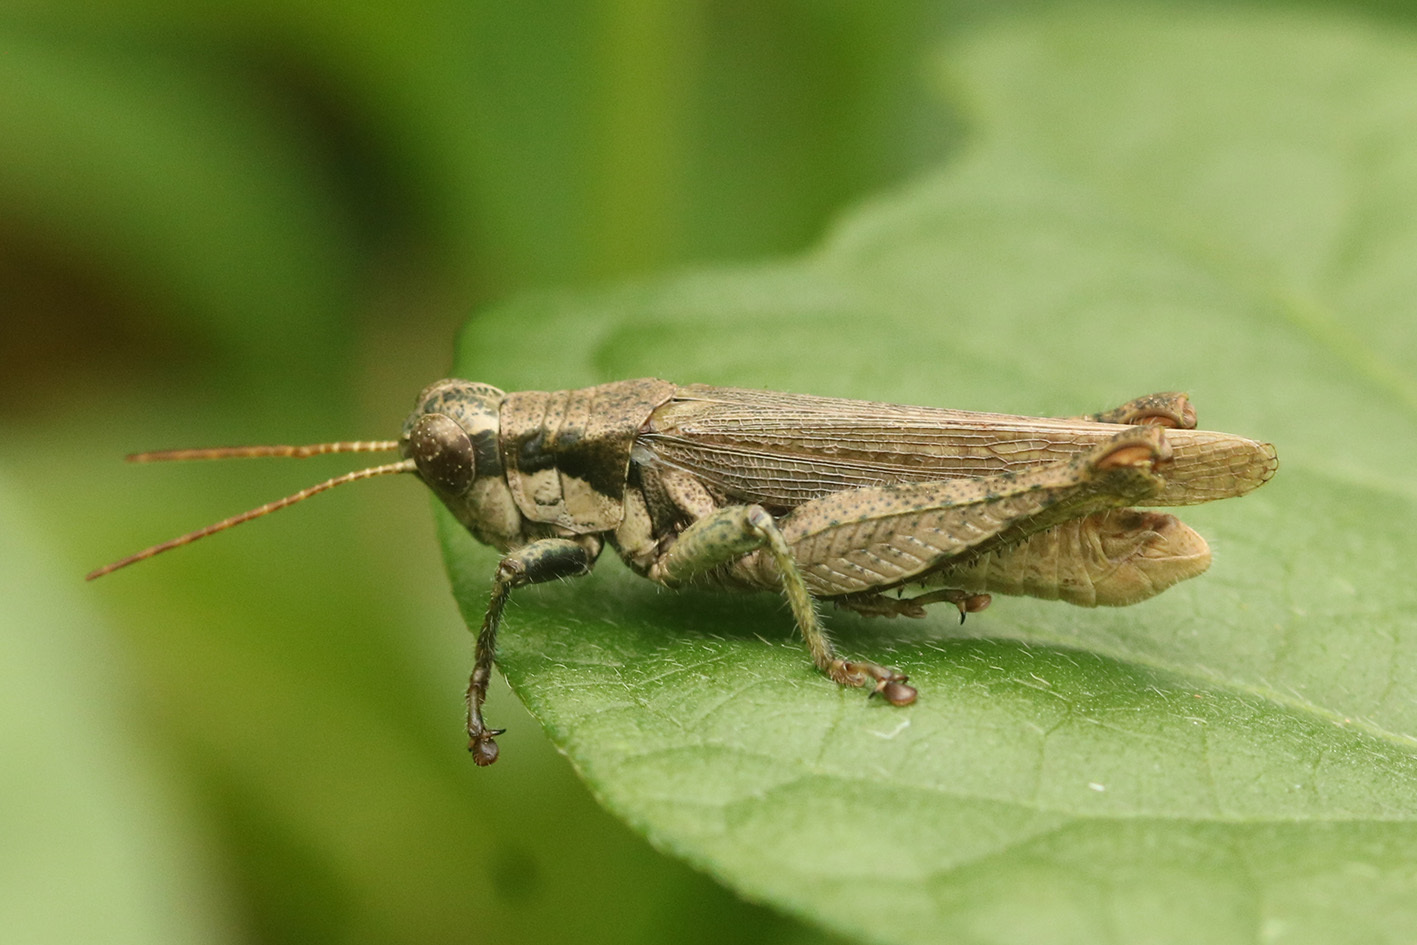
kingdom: Animalia
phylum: Arthropoda
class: Insecta
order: Orthoptera
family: Acrididae
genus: Ronderosia
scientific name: Ronderosia bergii
